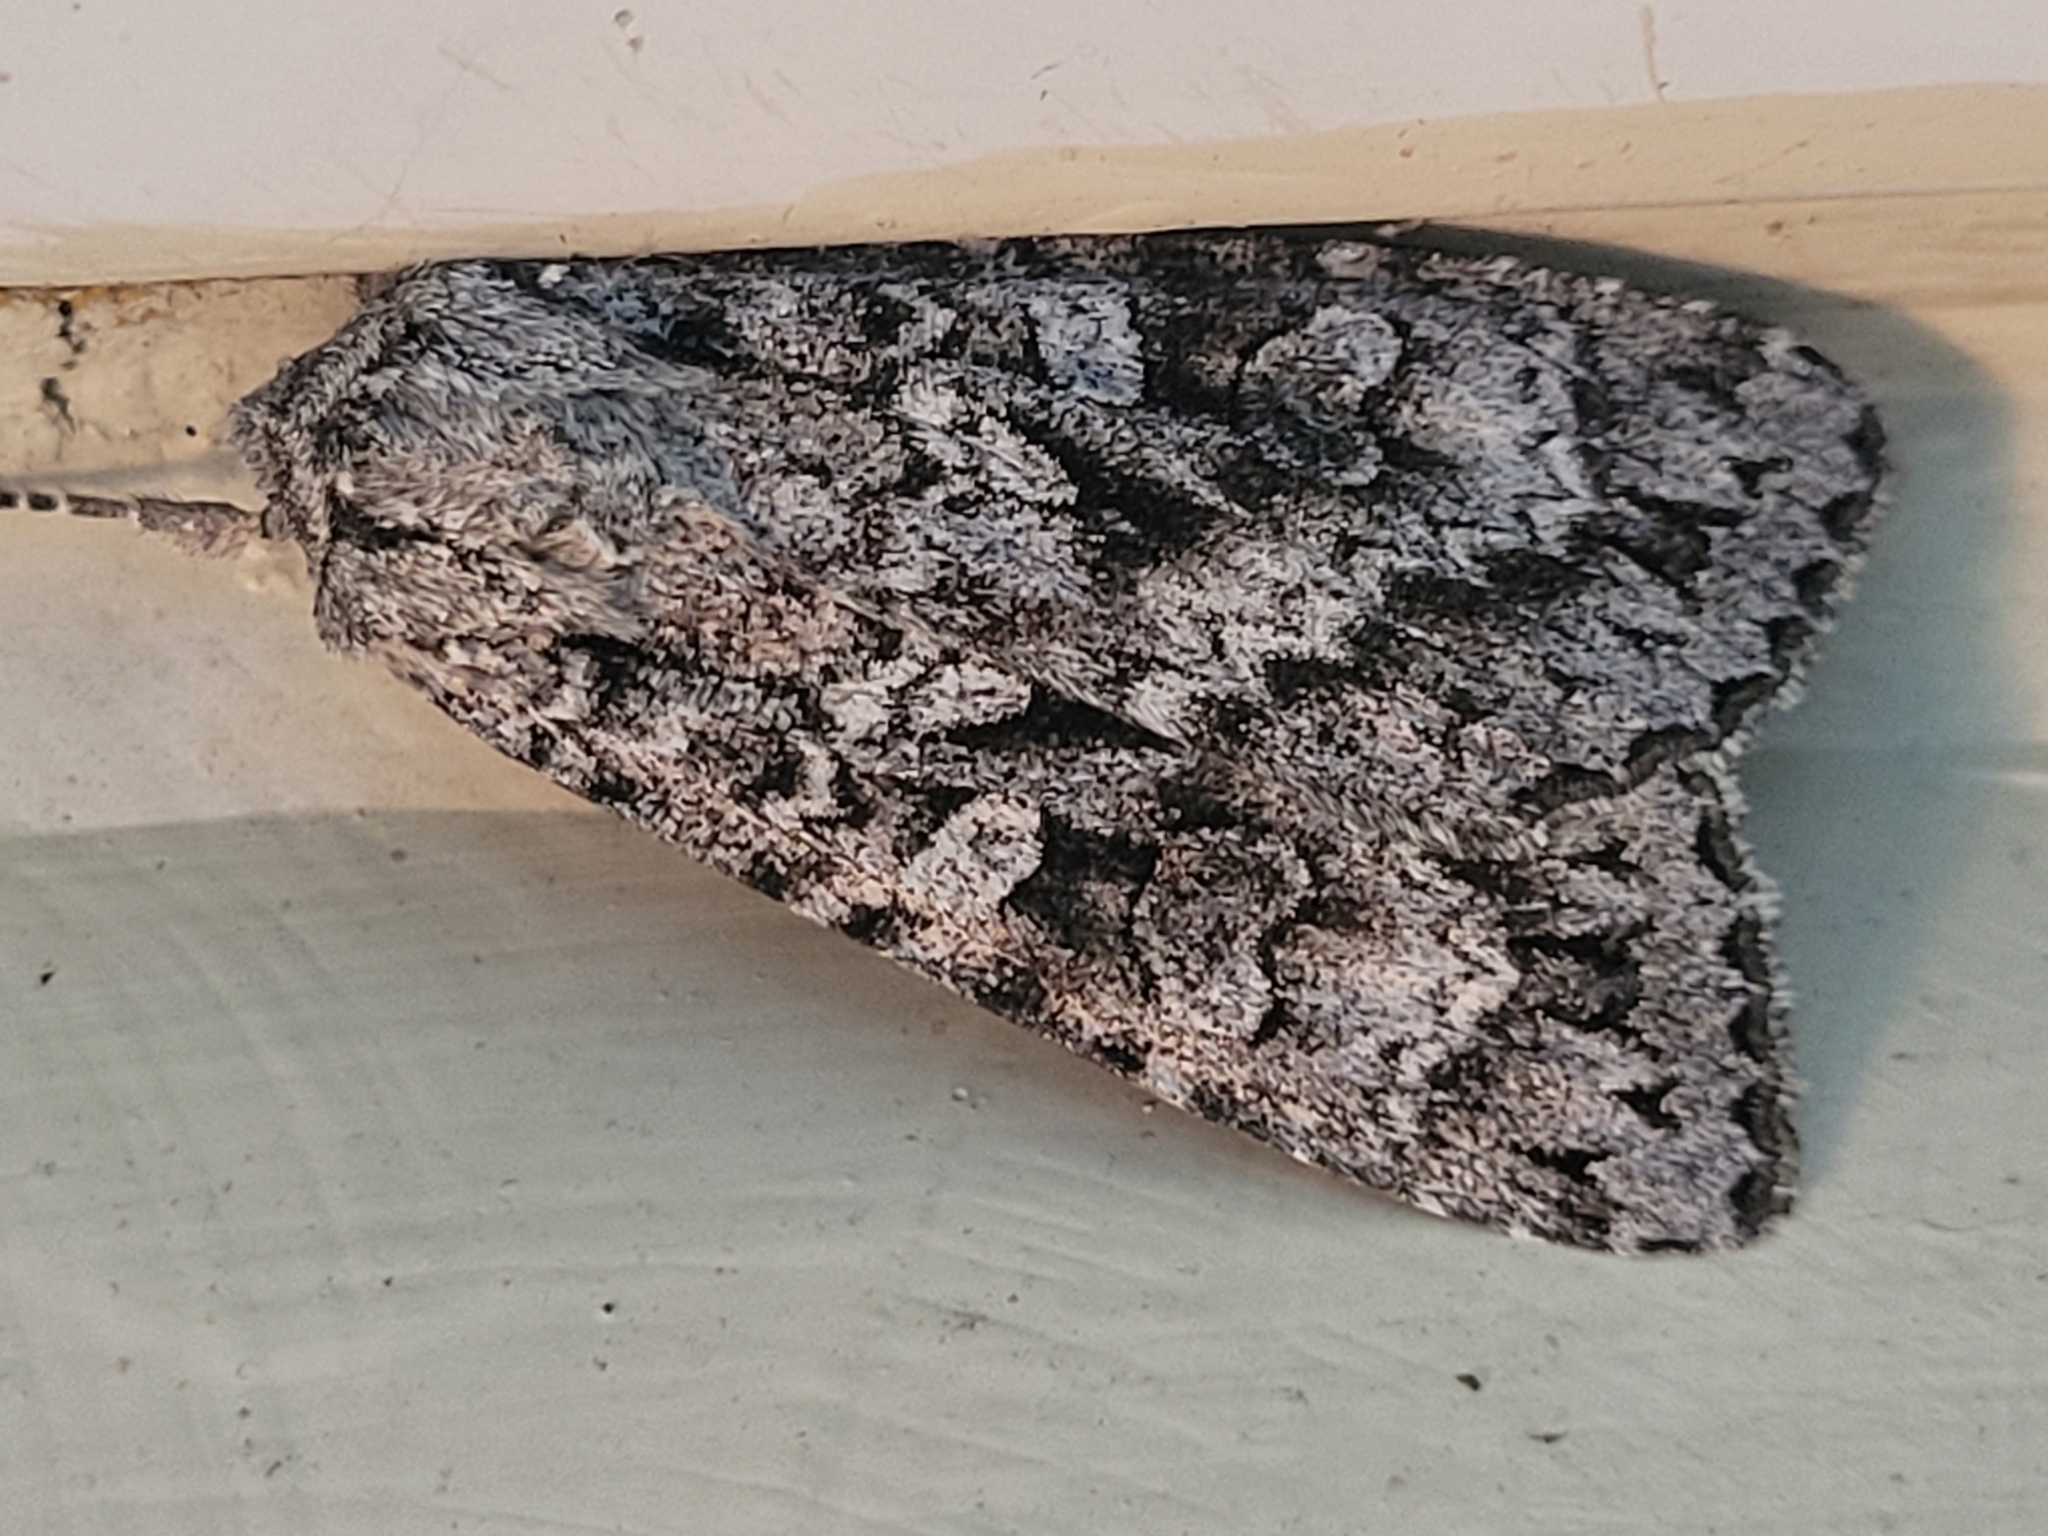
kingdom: Animalia
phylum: Arthropoda
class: Insecta
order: Lepidoptera
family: Noctuidae
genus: Eurois
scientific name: Eurois occulta
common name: Great brocade
